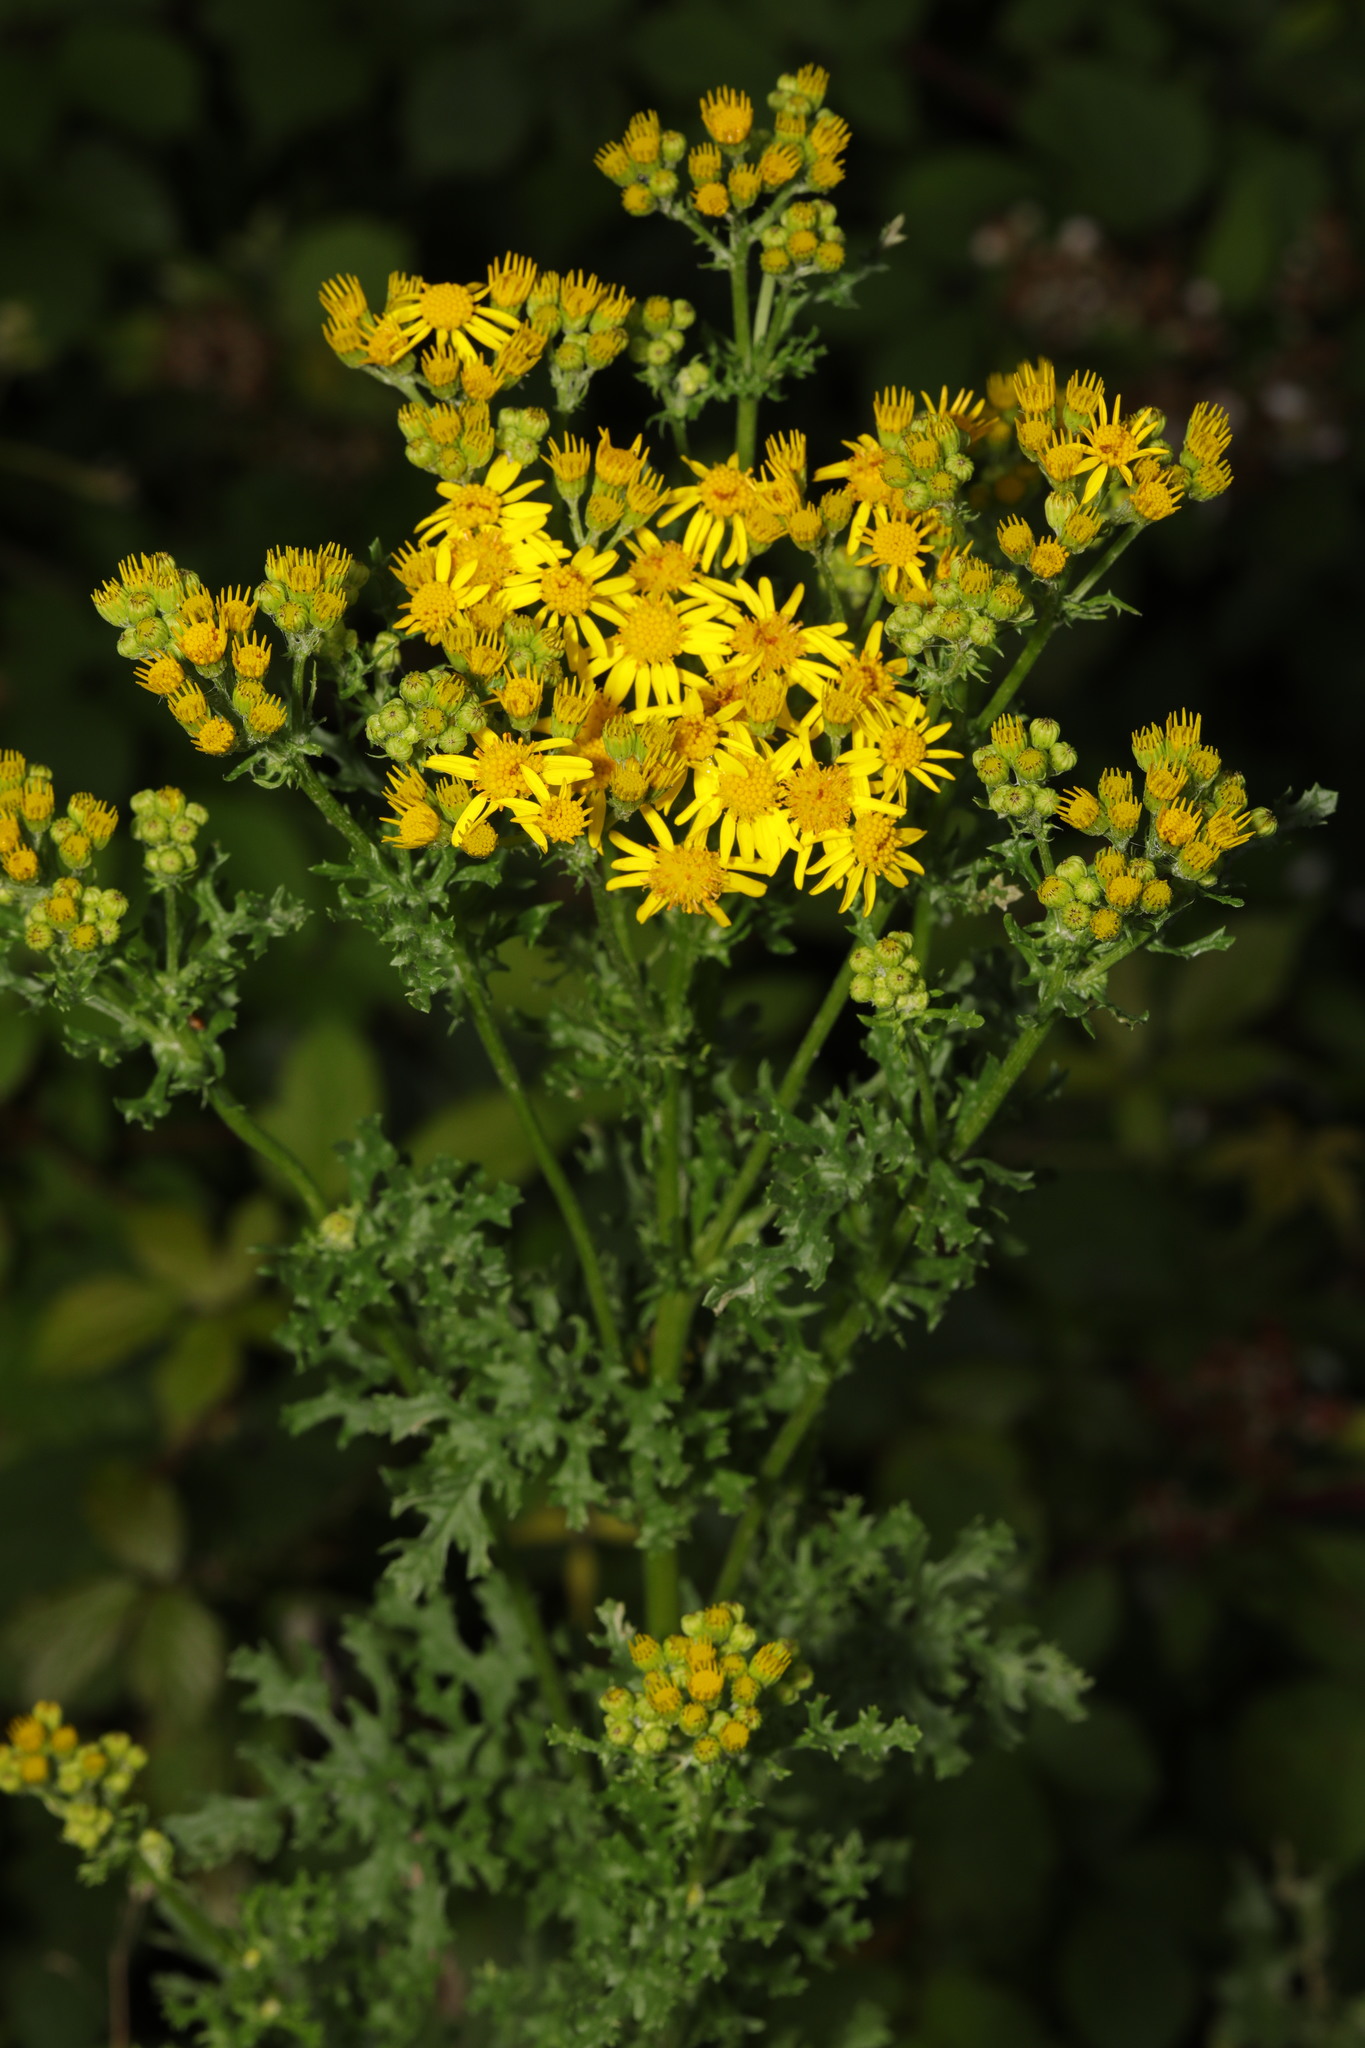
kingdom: Plantae
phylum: Tracheophyta
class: Magnoliopsida
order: Asterales
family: Asteraceae
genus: Jacobaea
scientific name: Jacobaea vulgaris
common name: Stinking willie
